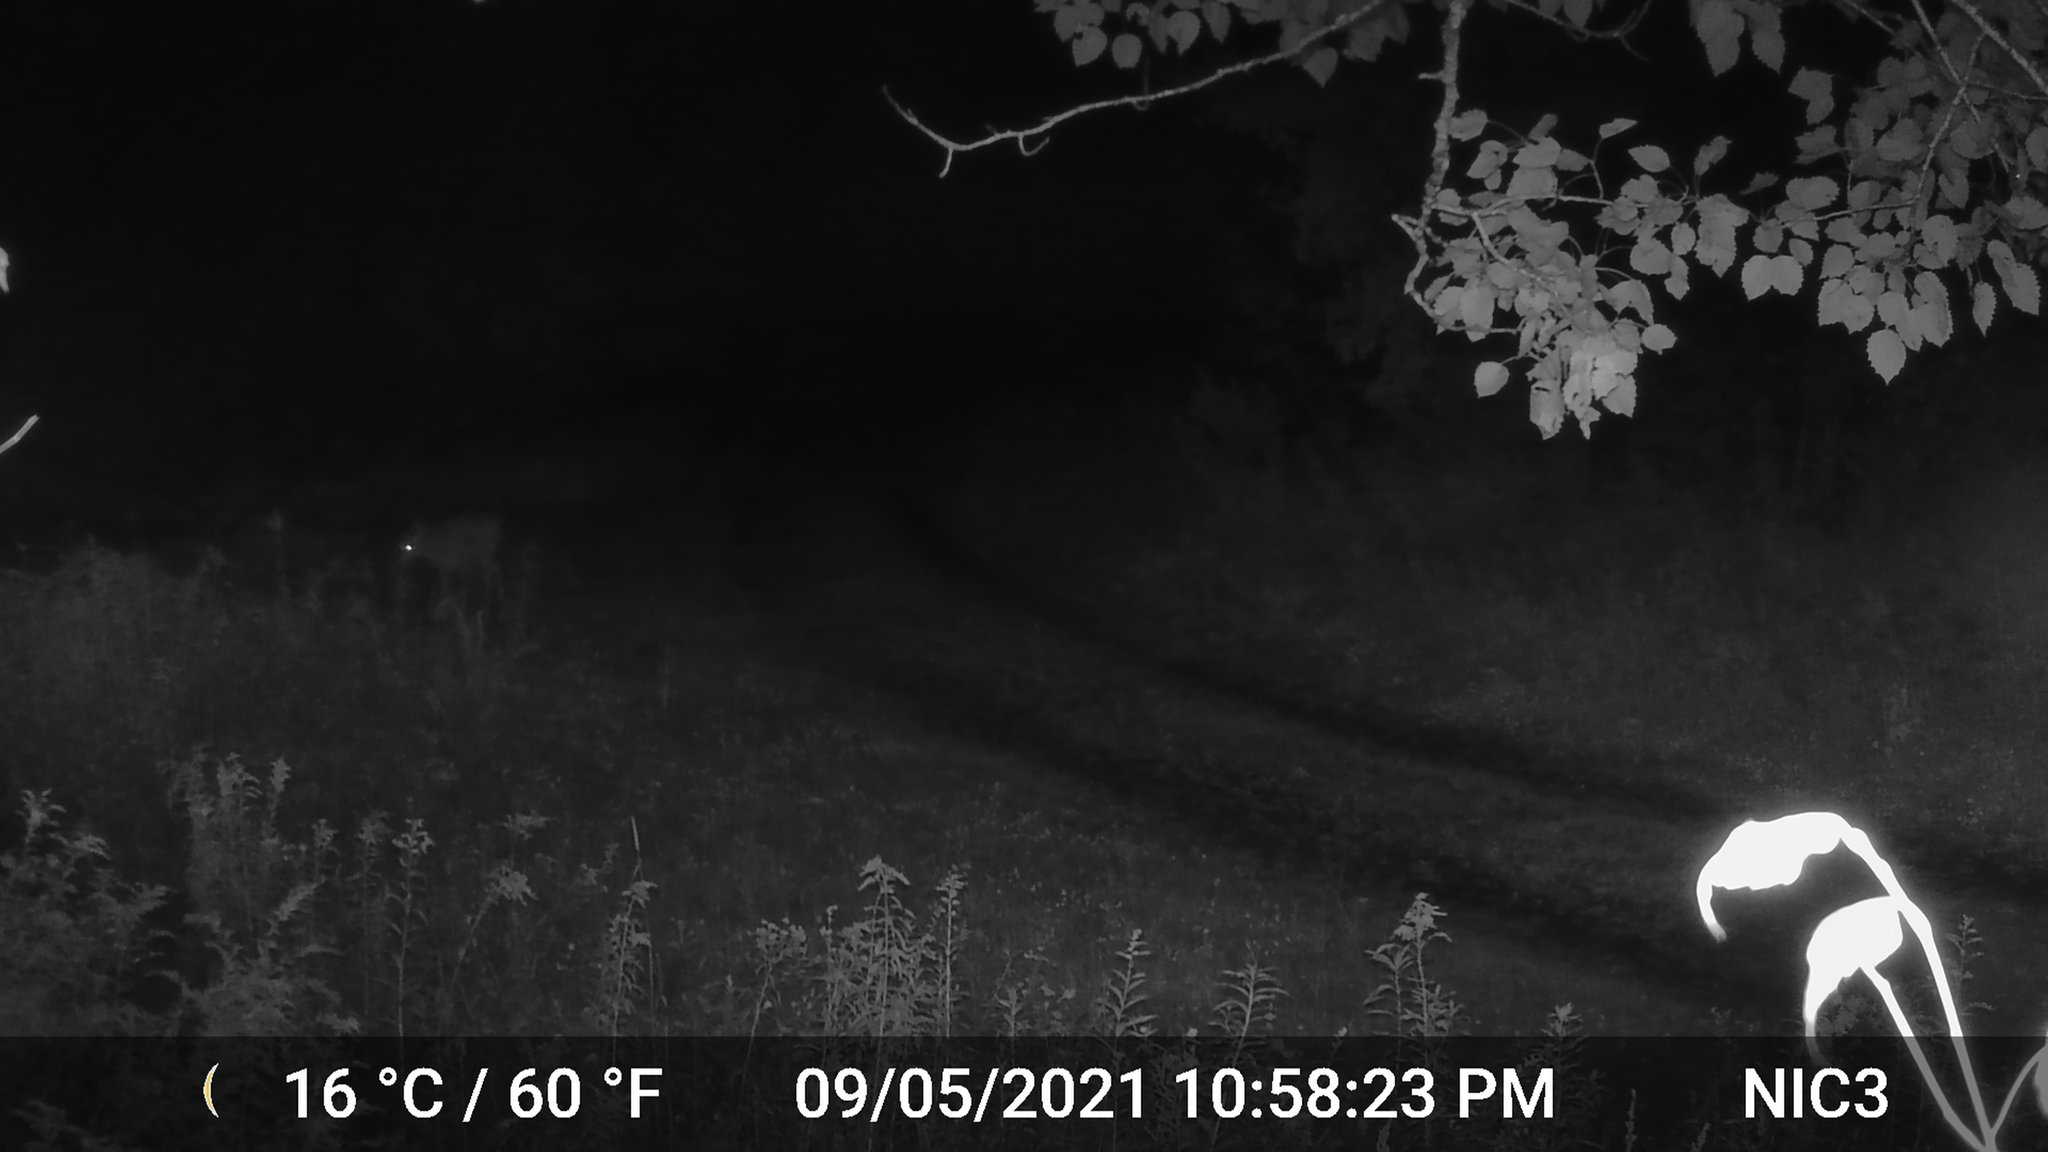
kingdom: Animalia
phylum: Chordata
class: Mammalia
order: Artiodactyla
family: Cervidae
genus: Odocoileus
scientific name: Odocoileus virginianus
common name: White-tailed deer
